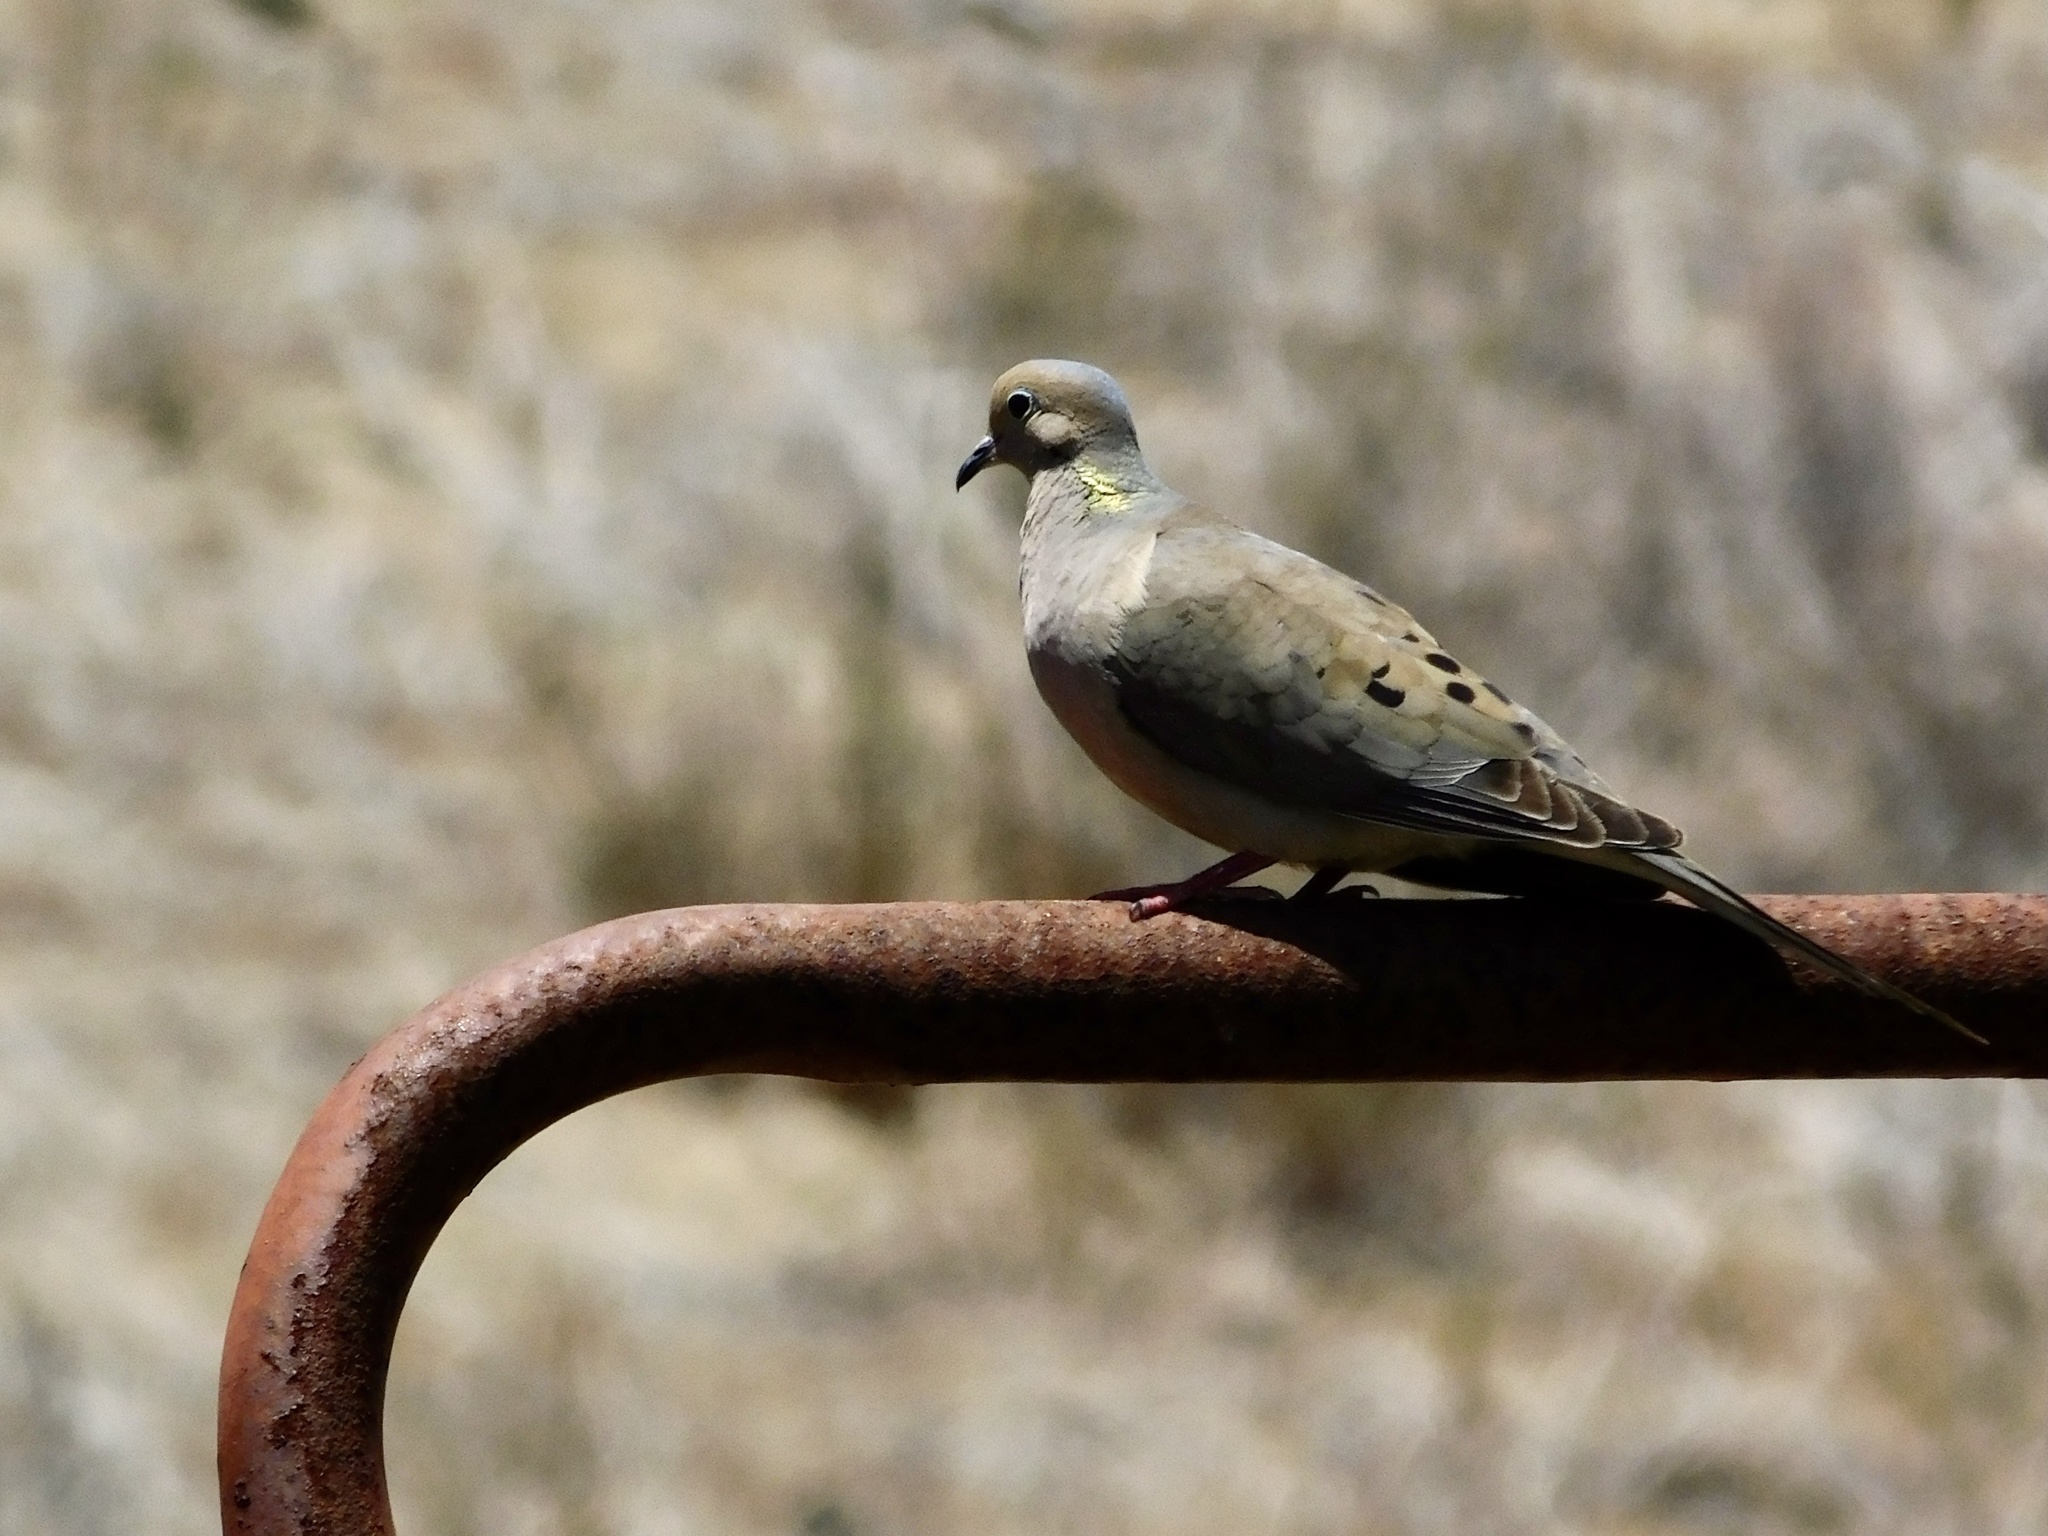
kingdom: Animalia
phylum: Chordata
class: Aves
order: Columbiformes
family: Columbidae
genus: Zenaida
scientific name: Zenaida macroura
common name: Mourning dove
